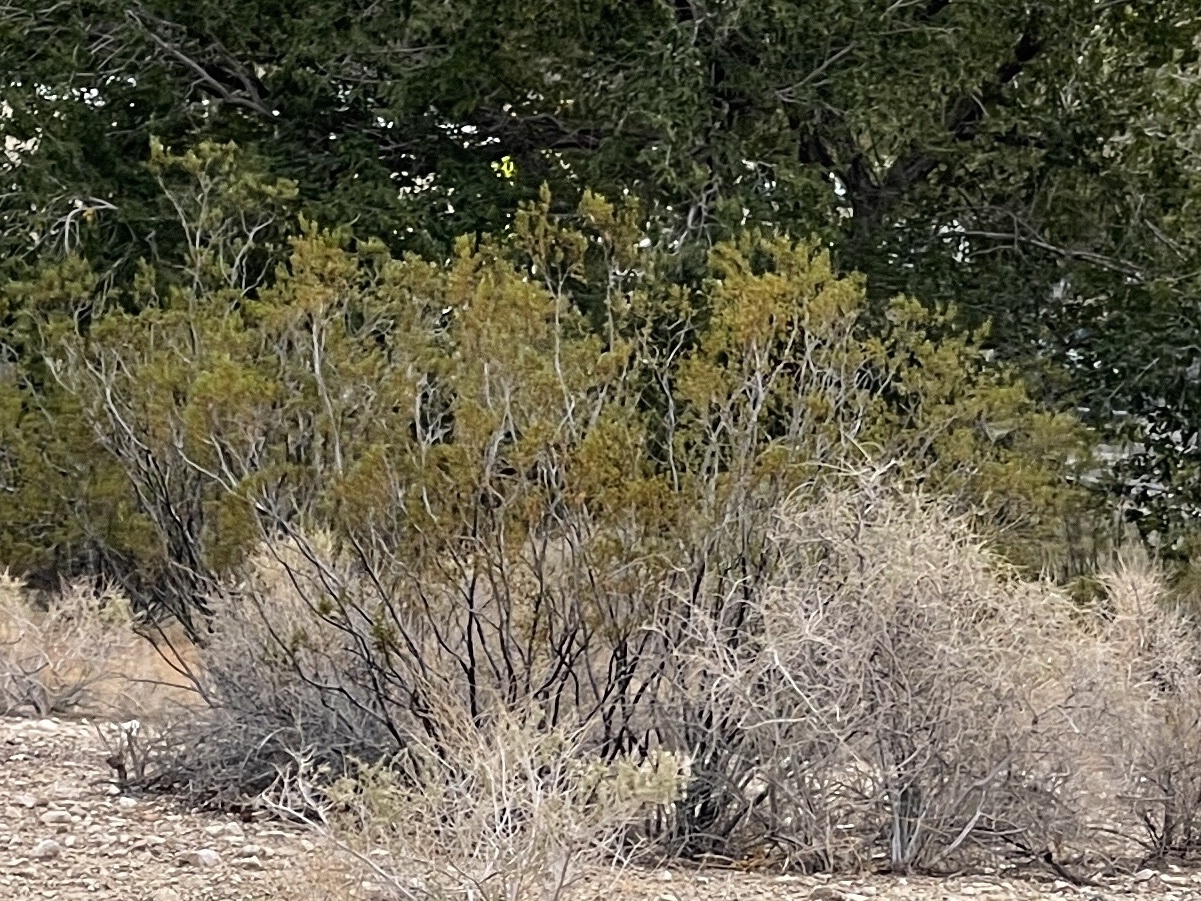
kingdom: Plantae
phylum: Tracheophyta
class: Magnoliopsida
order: Zygophyllales
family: Zygophyllaceae
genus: Larrea
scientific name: Larrea tridentata
